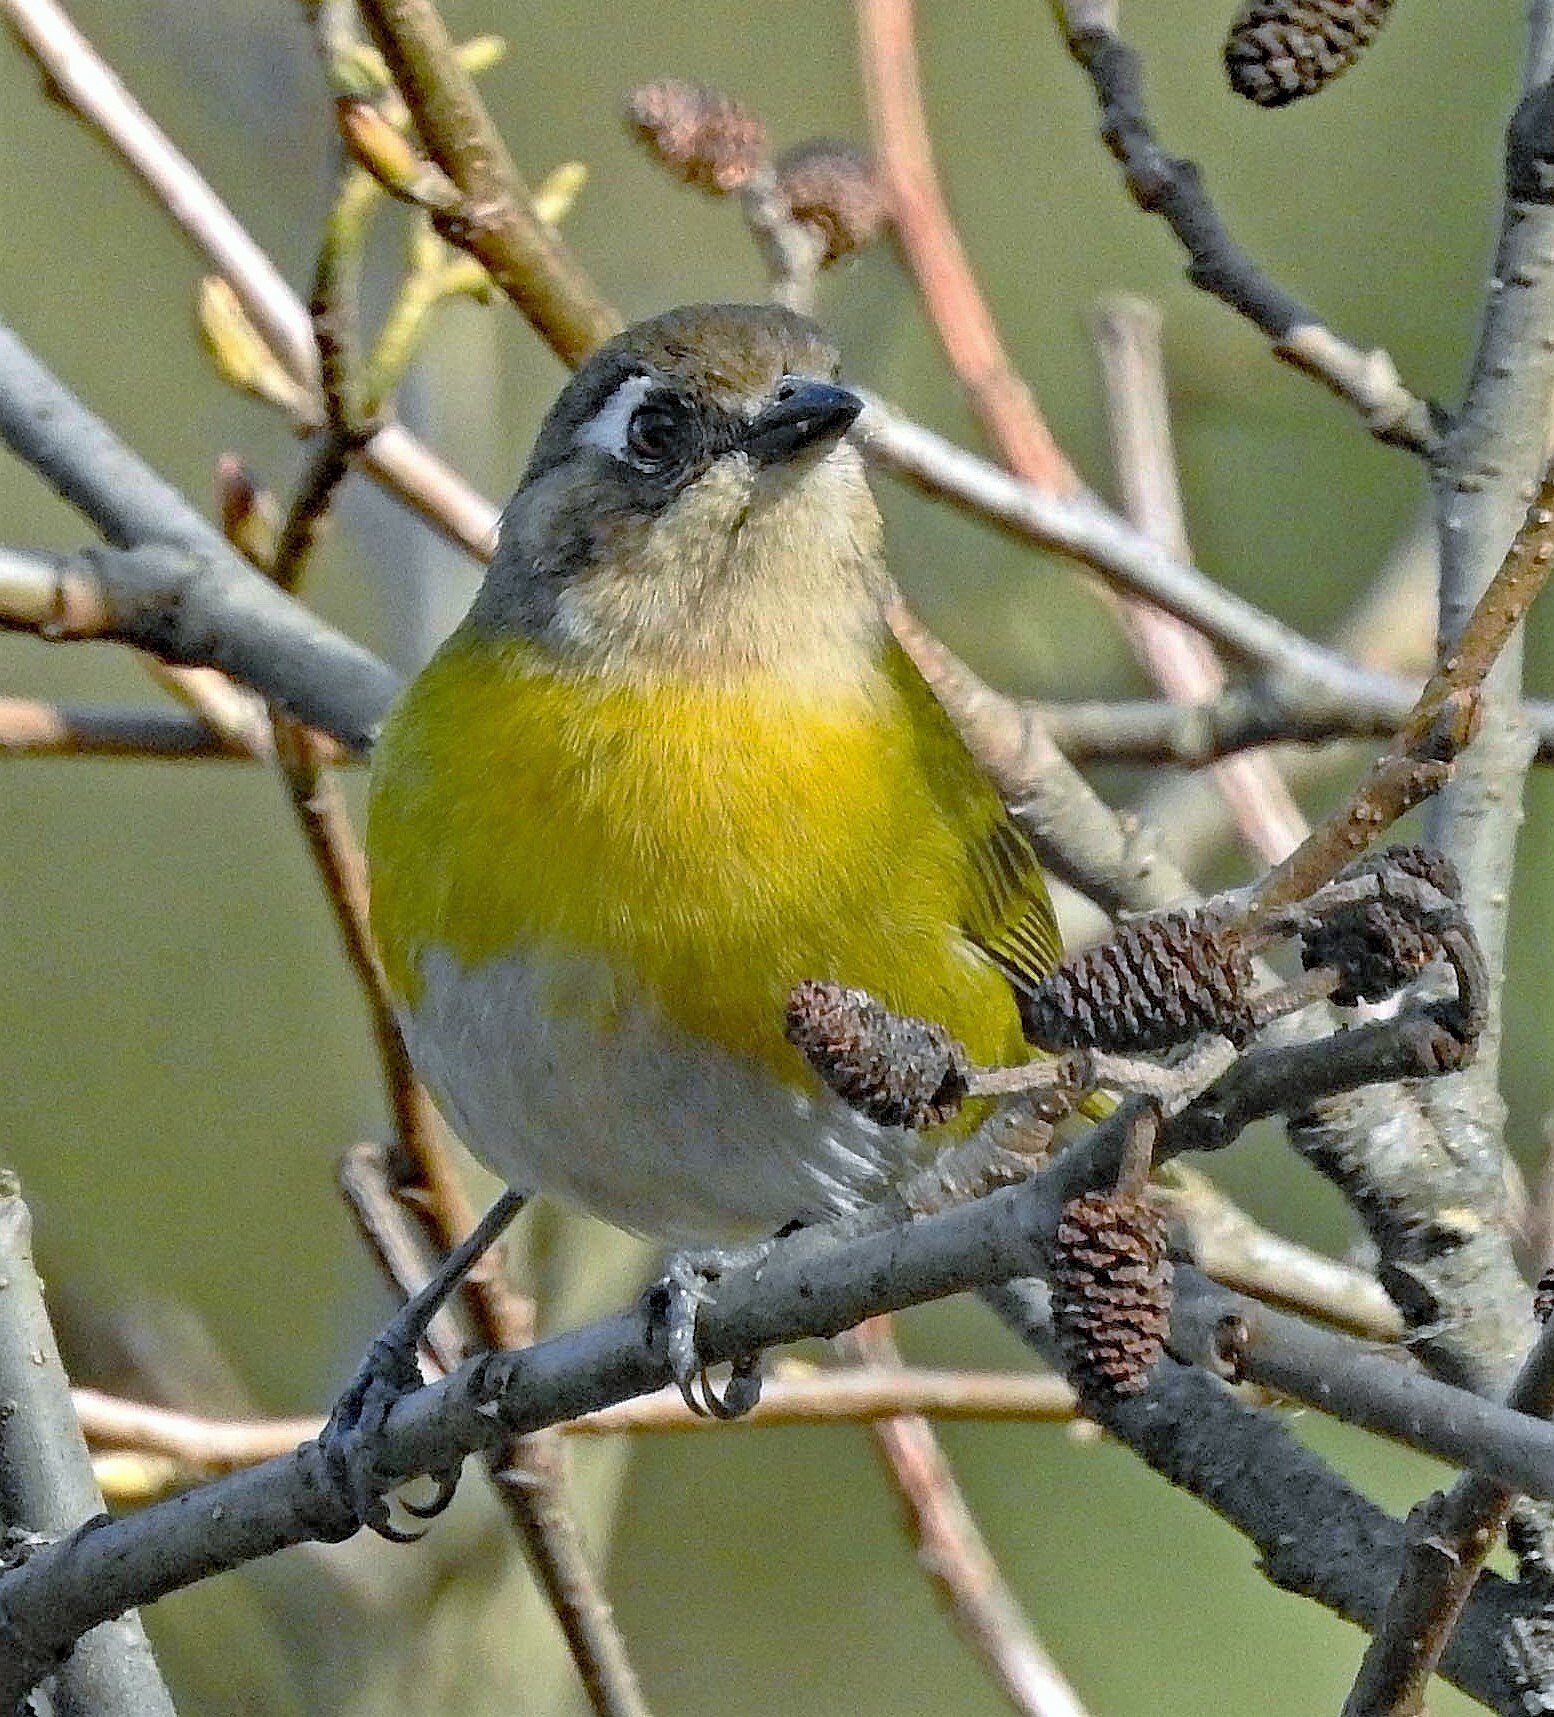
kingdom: Animalia
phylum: Chordata
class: Aves
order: Passeriformes
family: Passerellidae
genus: Chlorospingus
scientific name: Chlorospingus flavopectus
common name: Common chlorospingus
